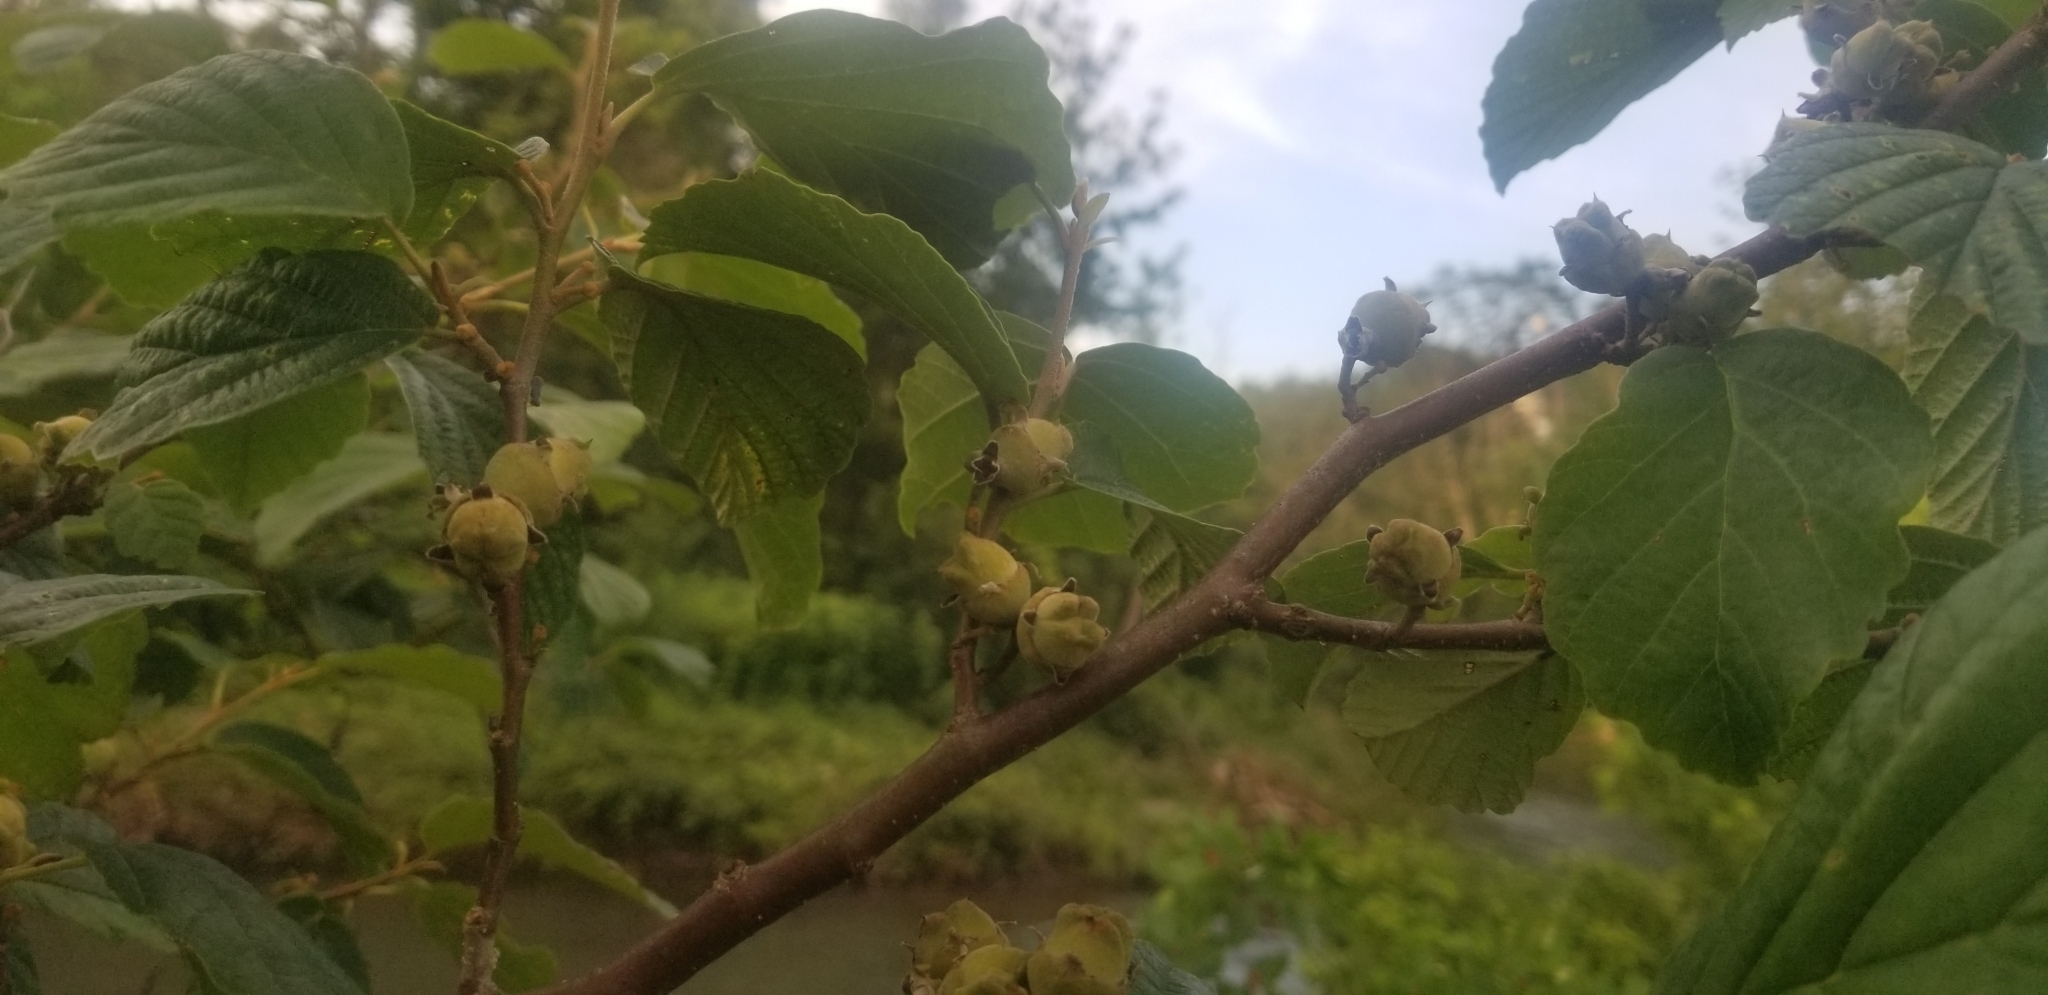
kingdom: Plantae
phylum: Tracheophyta
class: Magnoliopsida
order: Saxifragales
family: Hamamelidaceae
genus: Hamamelis
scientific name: Hamamelis virginiana
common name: Witch-hazel
